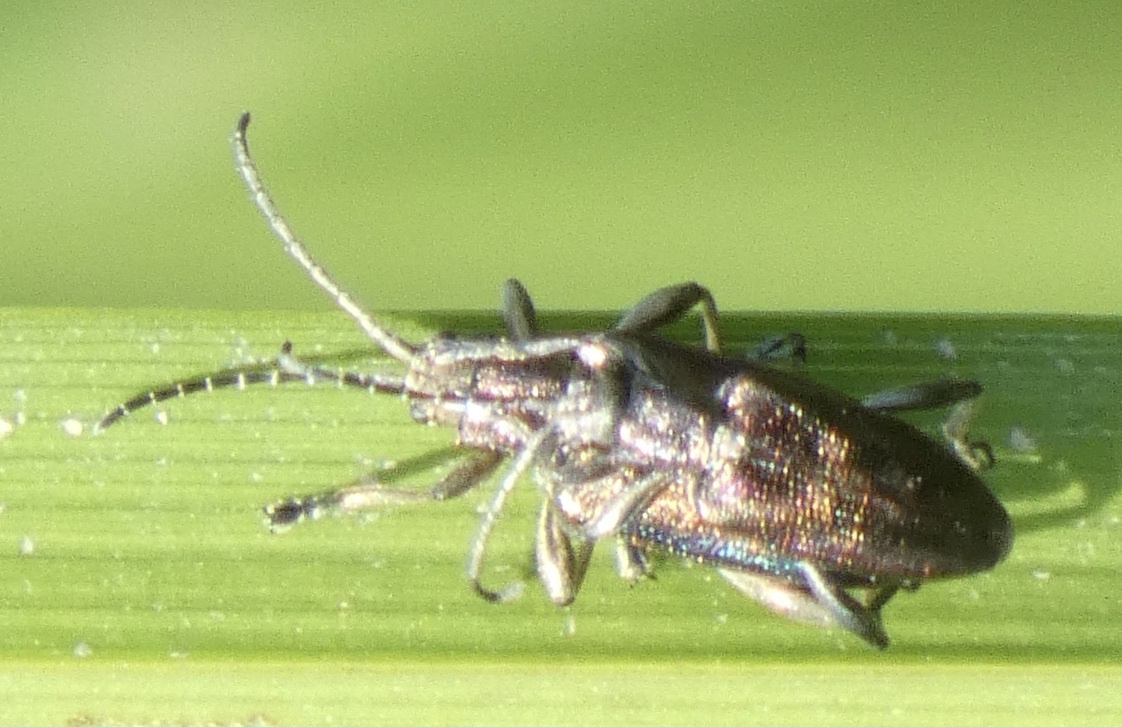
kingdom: Animalia
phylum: Arthropoda
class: Insecta
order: Coleoptera
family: Chrysomelidae
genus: Donacia
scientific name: Donacia marginata
